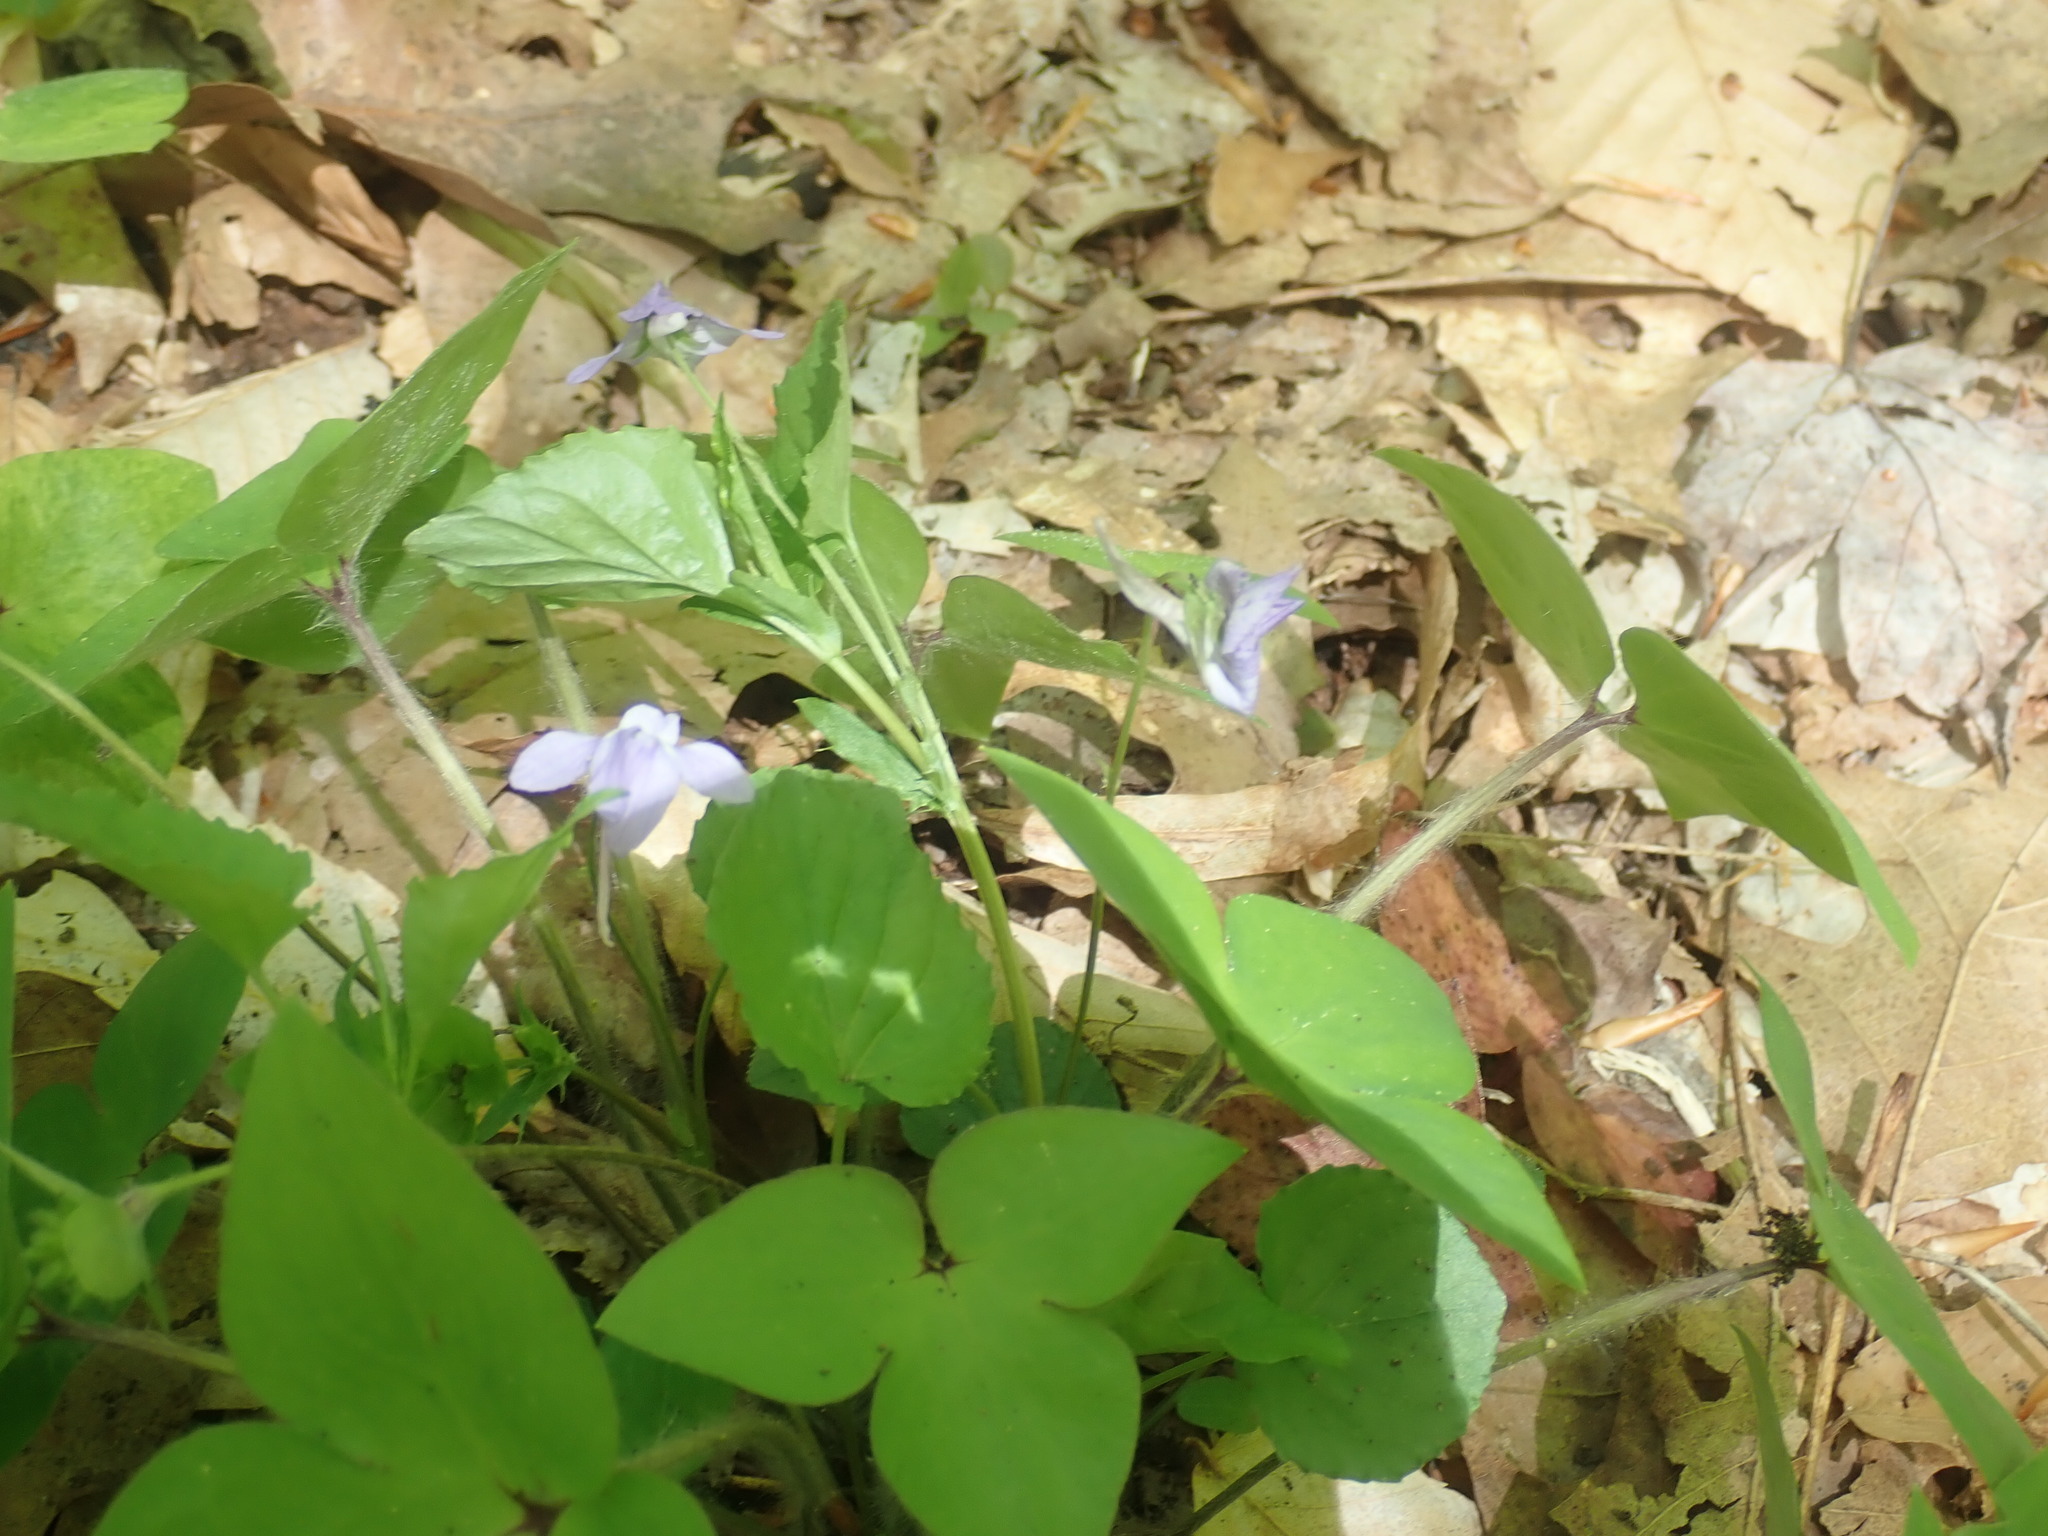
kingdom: Plantae
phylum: Tracheophyta
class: Magnoliopsida
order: Malpighiales
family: Violaceae
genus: Viola
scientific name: Viola rostrata
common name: Long-spur violet
